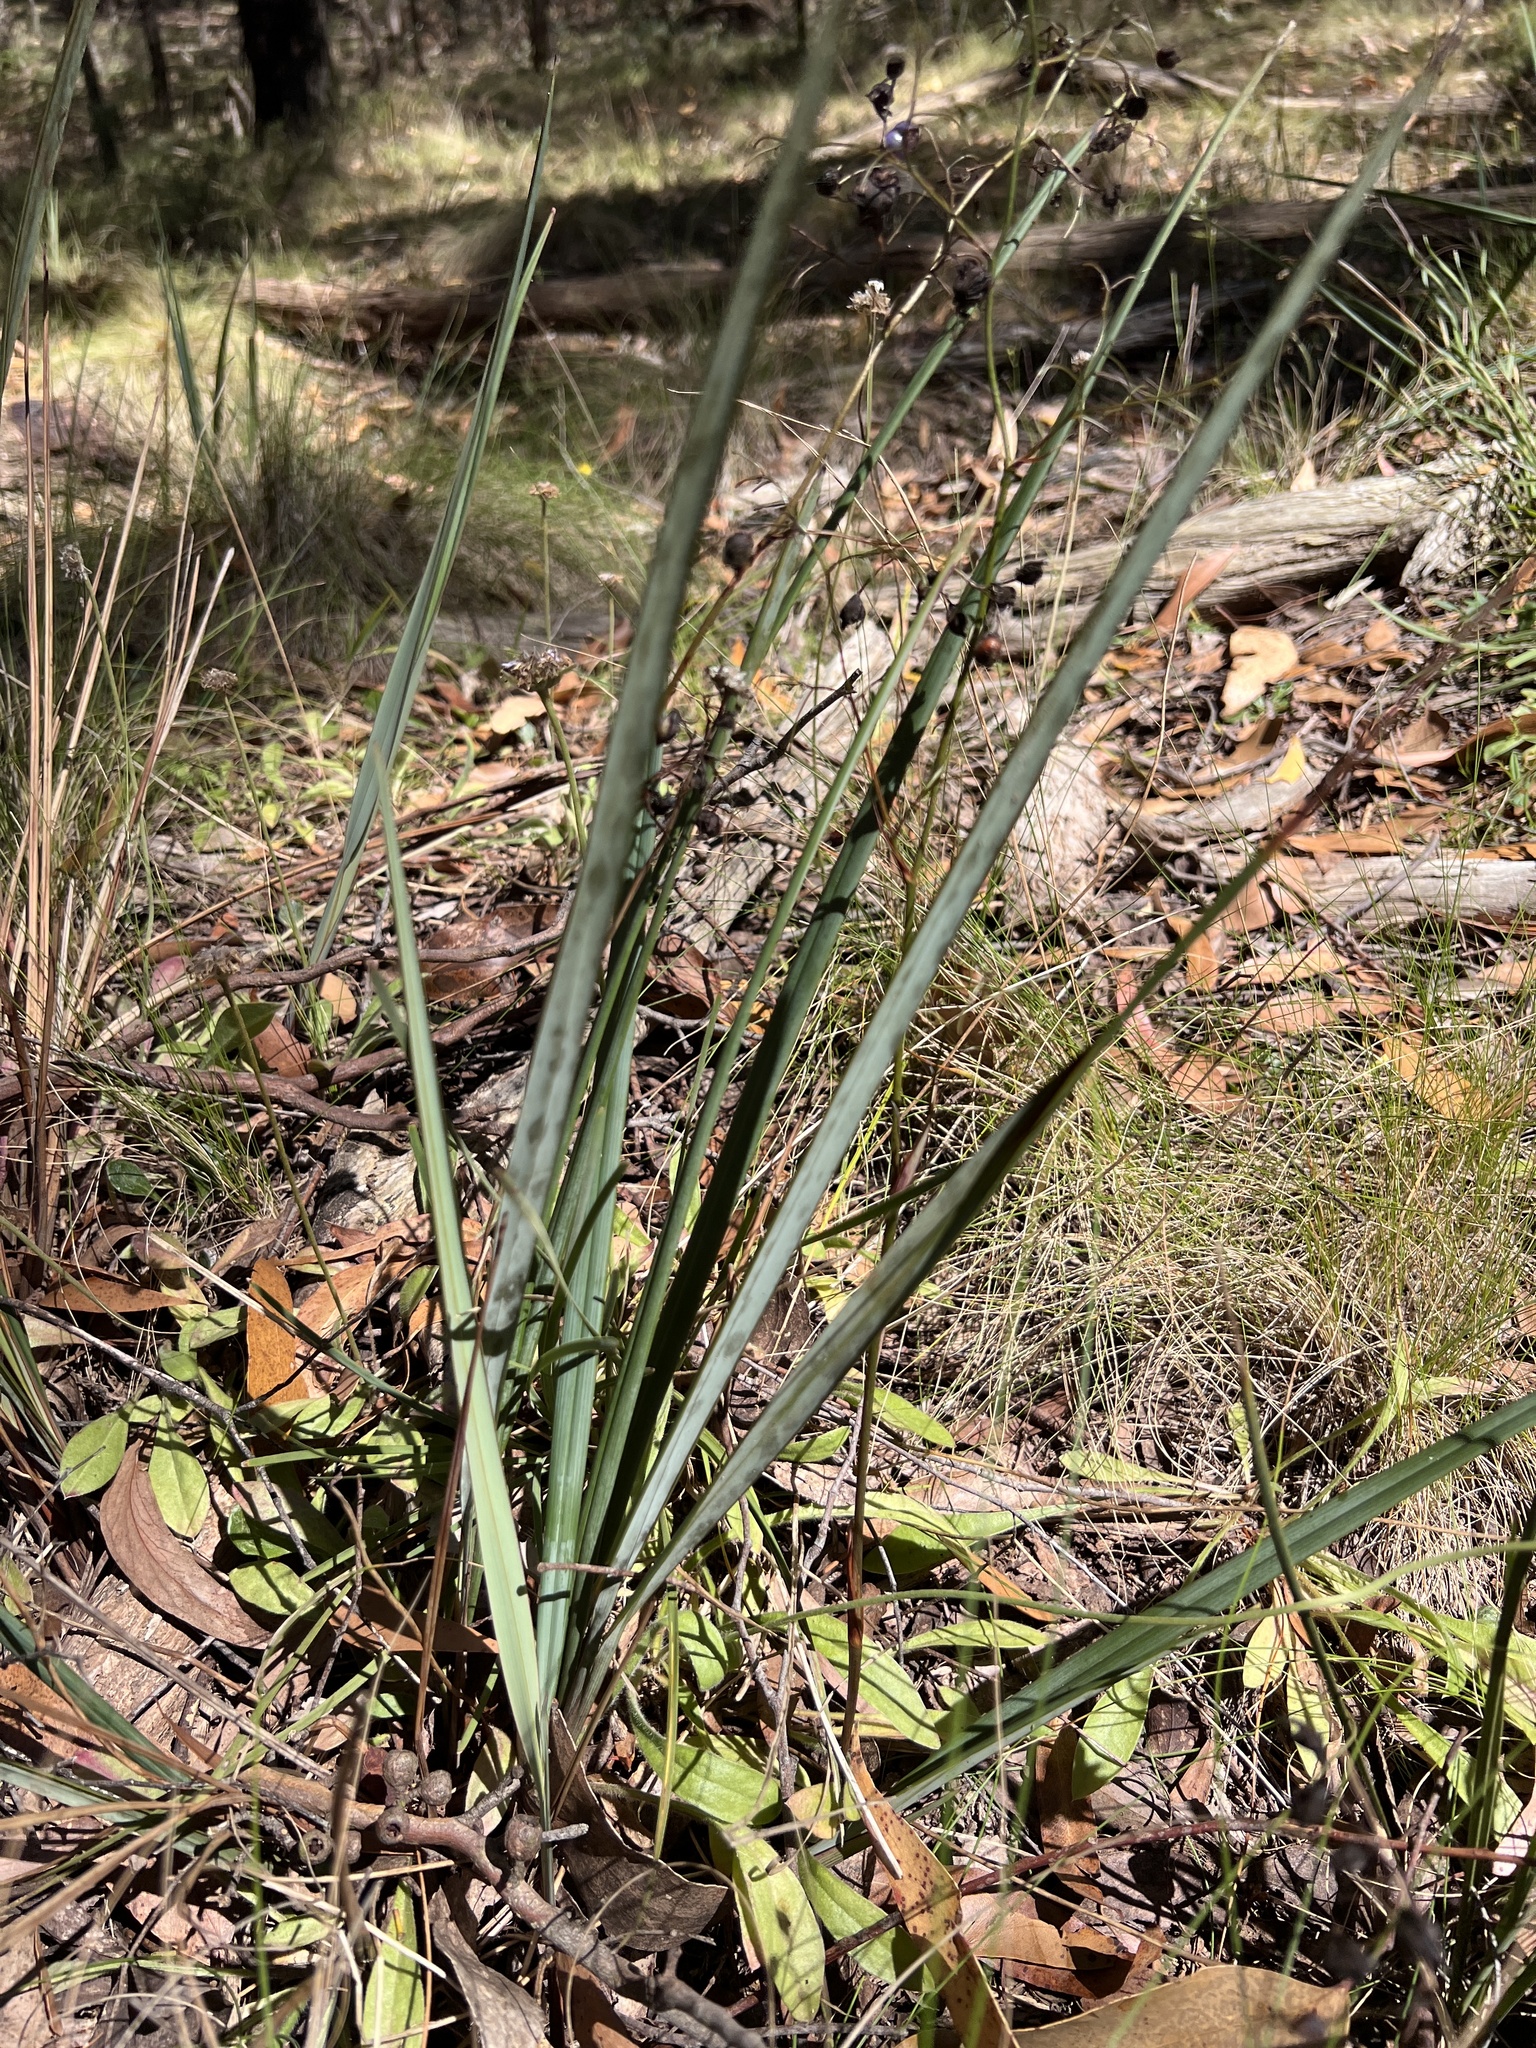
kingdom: Plantae
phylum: Tracheophyta
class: Liliopsida
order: Asparagales
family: Asphodelaceae
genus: Dianella
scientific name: Dianella revoluta
